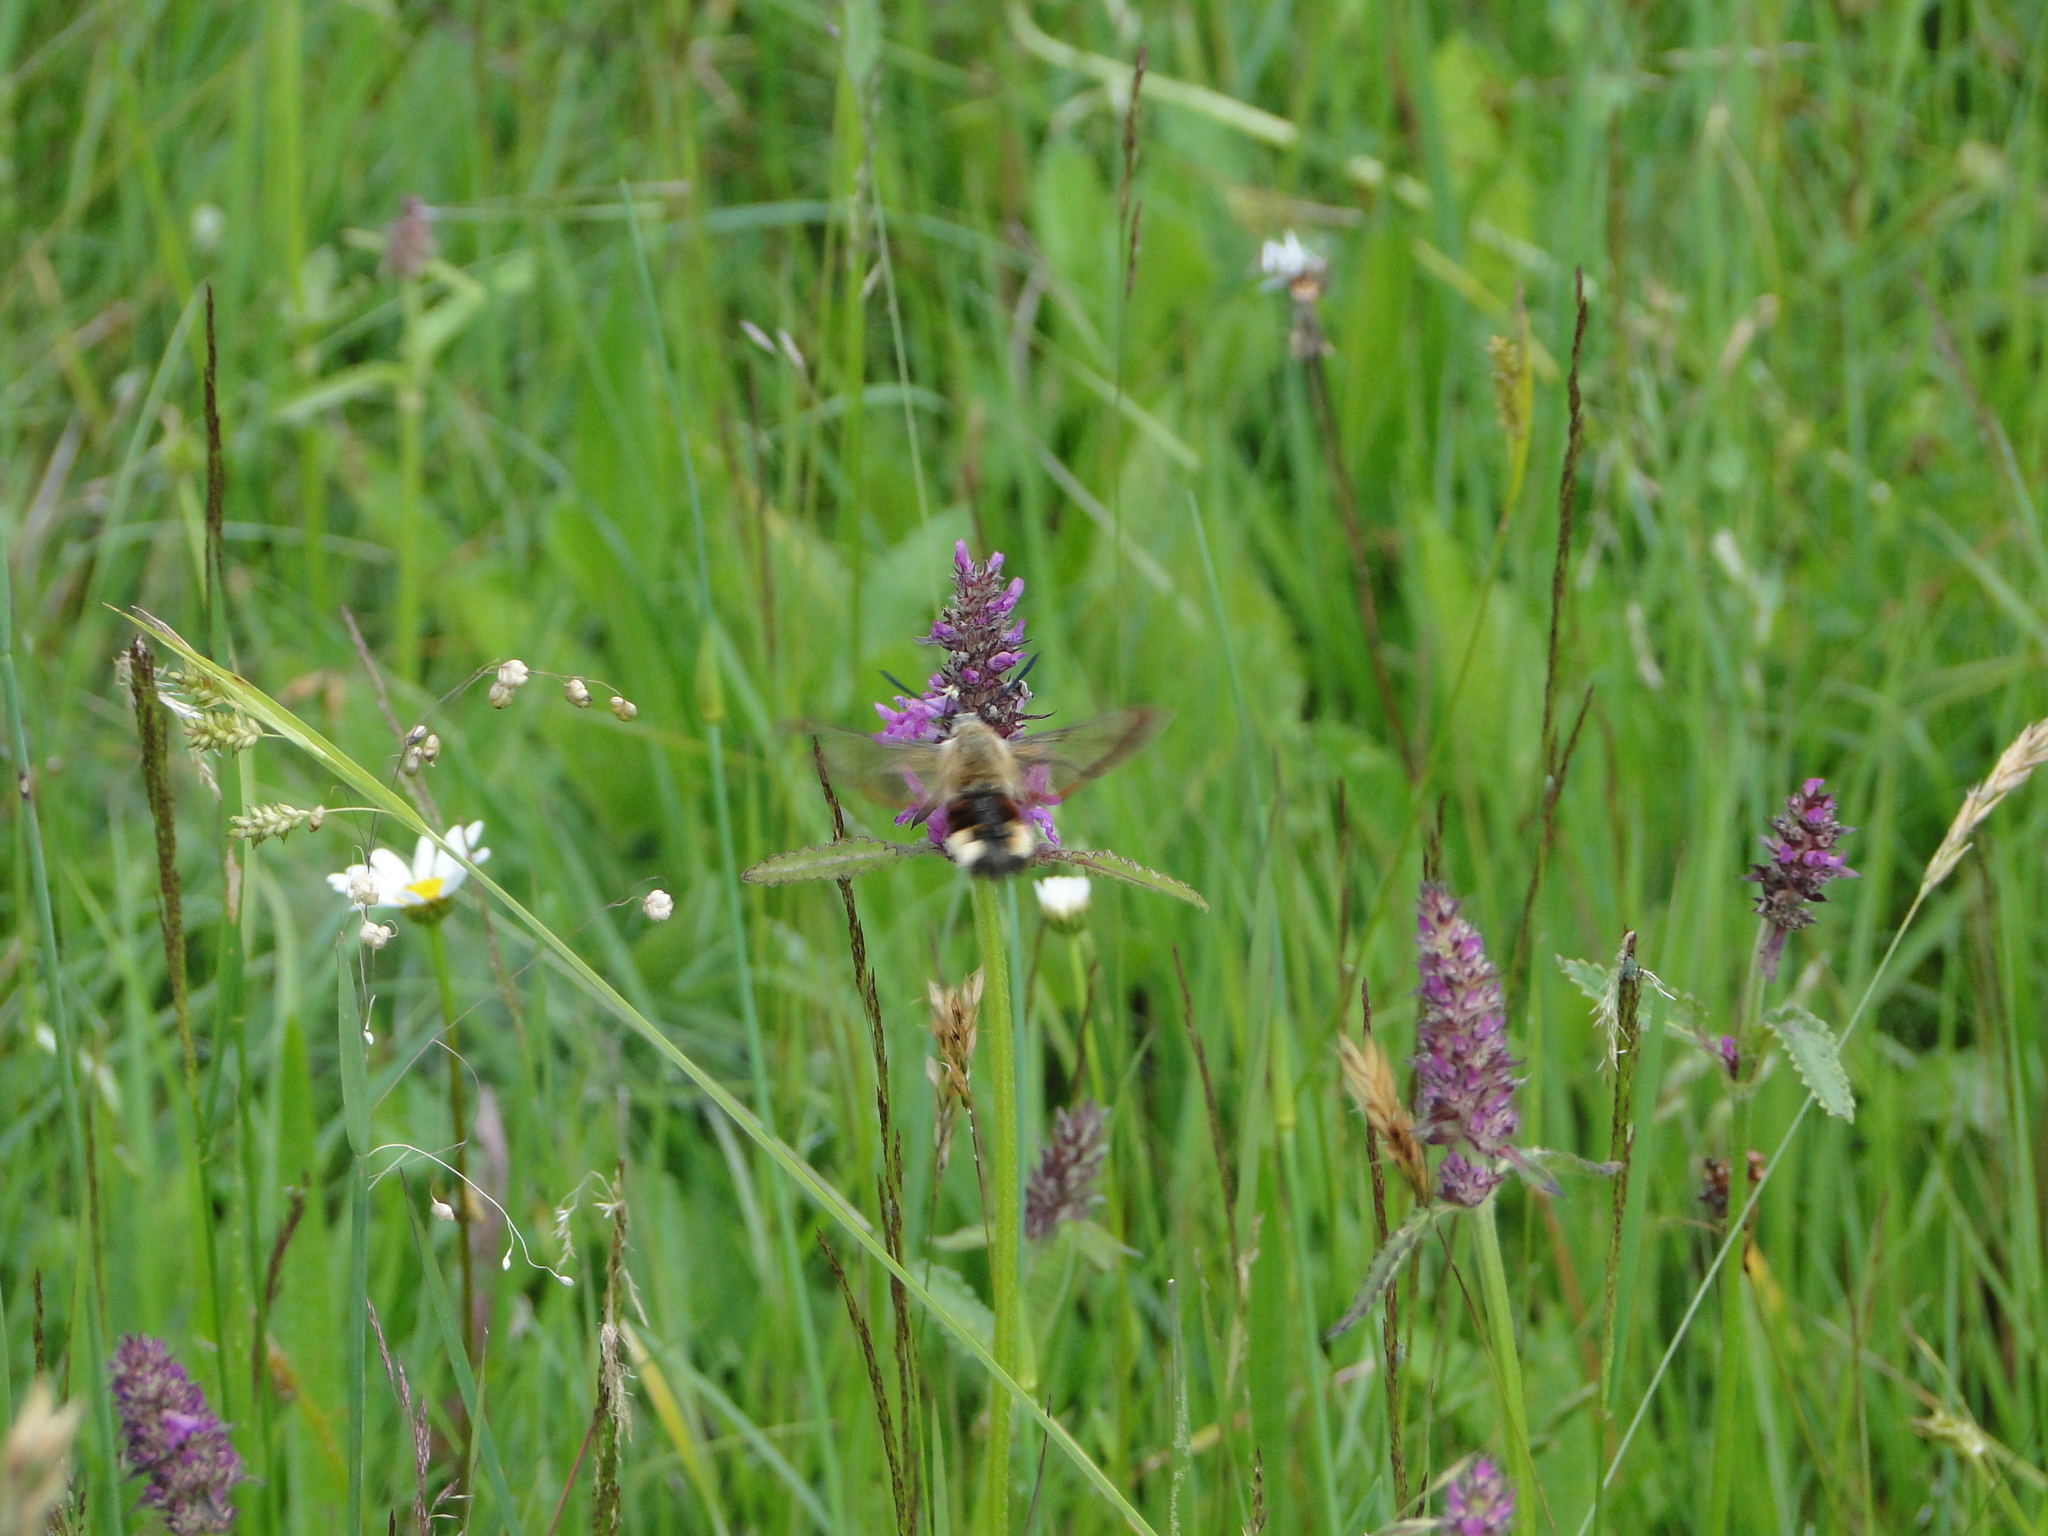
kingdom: Animalia
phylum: Arthropoda
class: Insecta
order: Lepidoptera
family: Sphingidae
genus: Hemaris
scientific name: Hemaris fuciformis
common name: Broad-bordered bee hawk-moth
